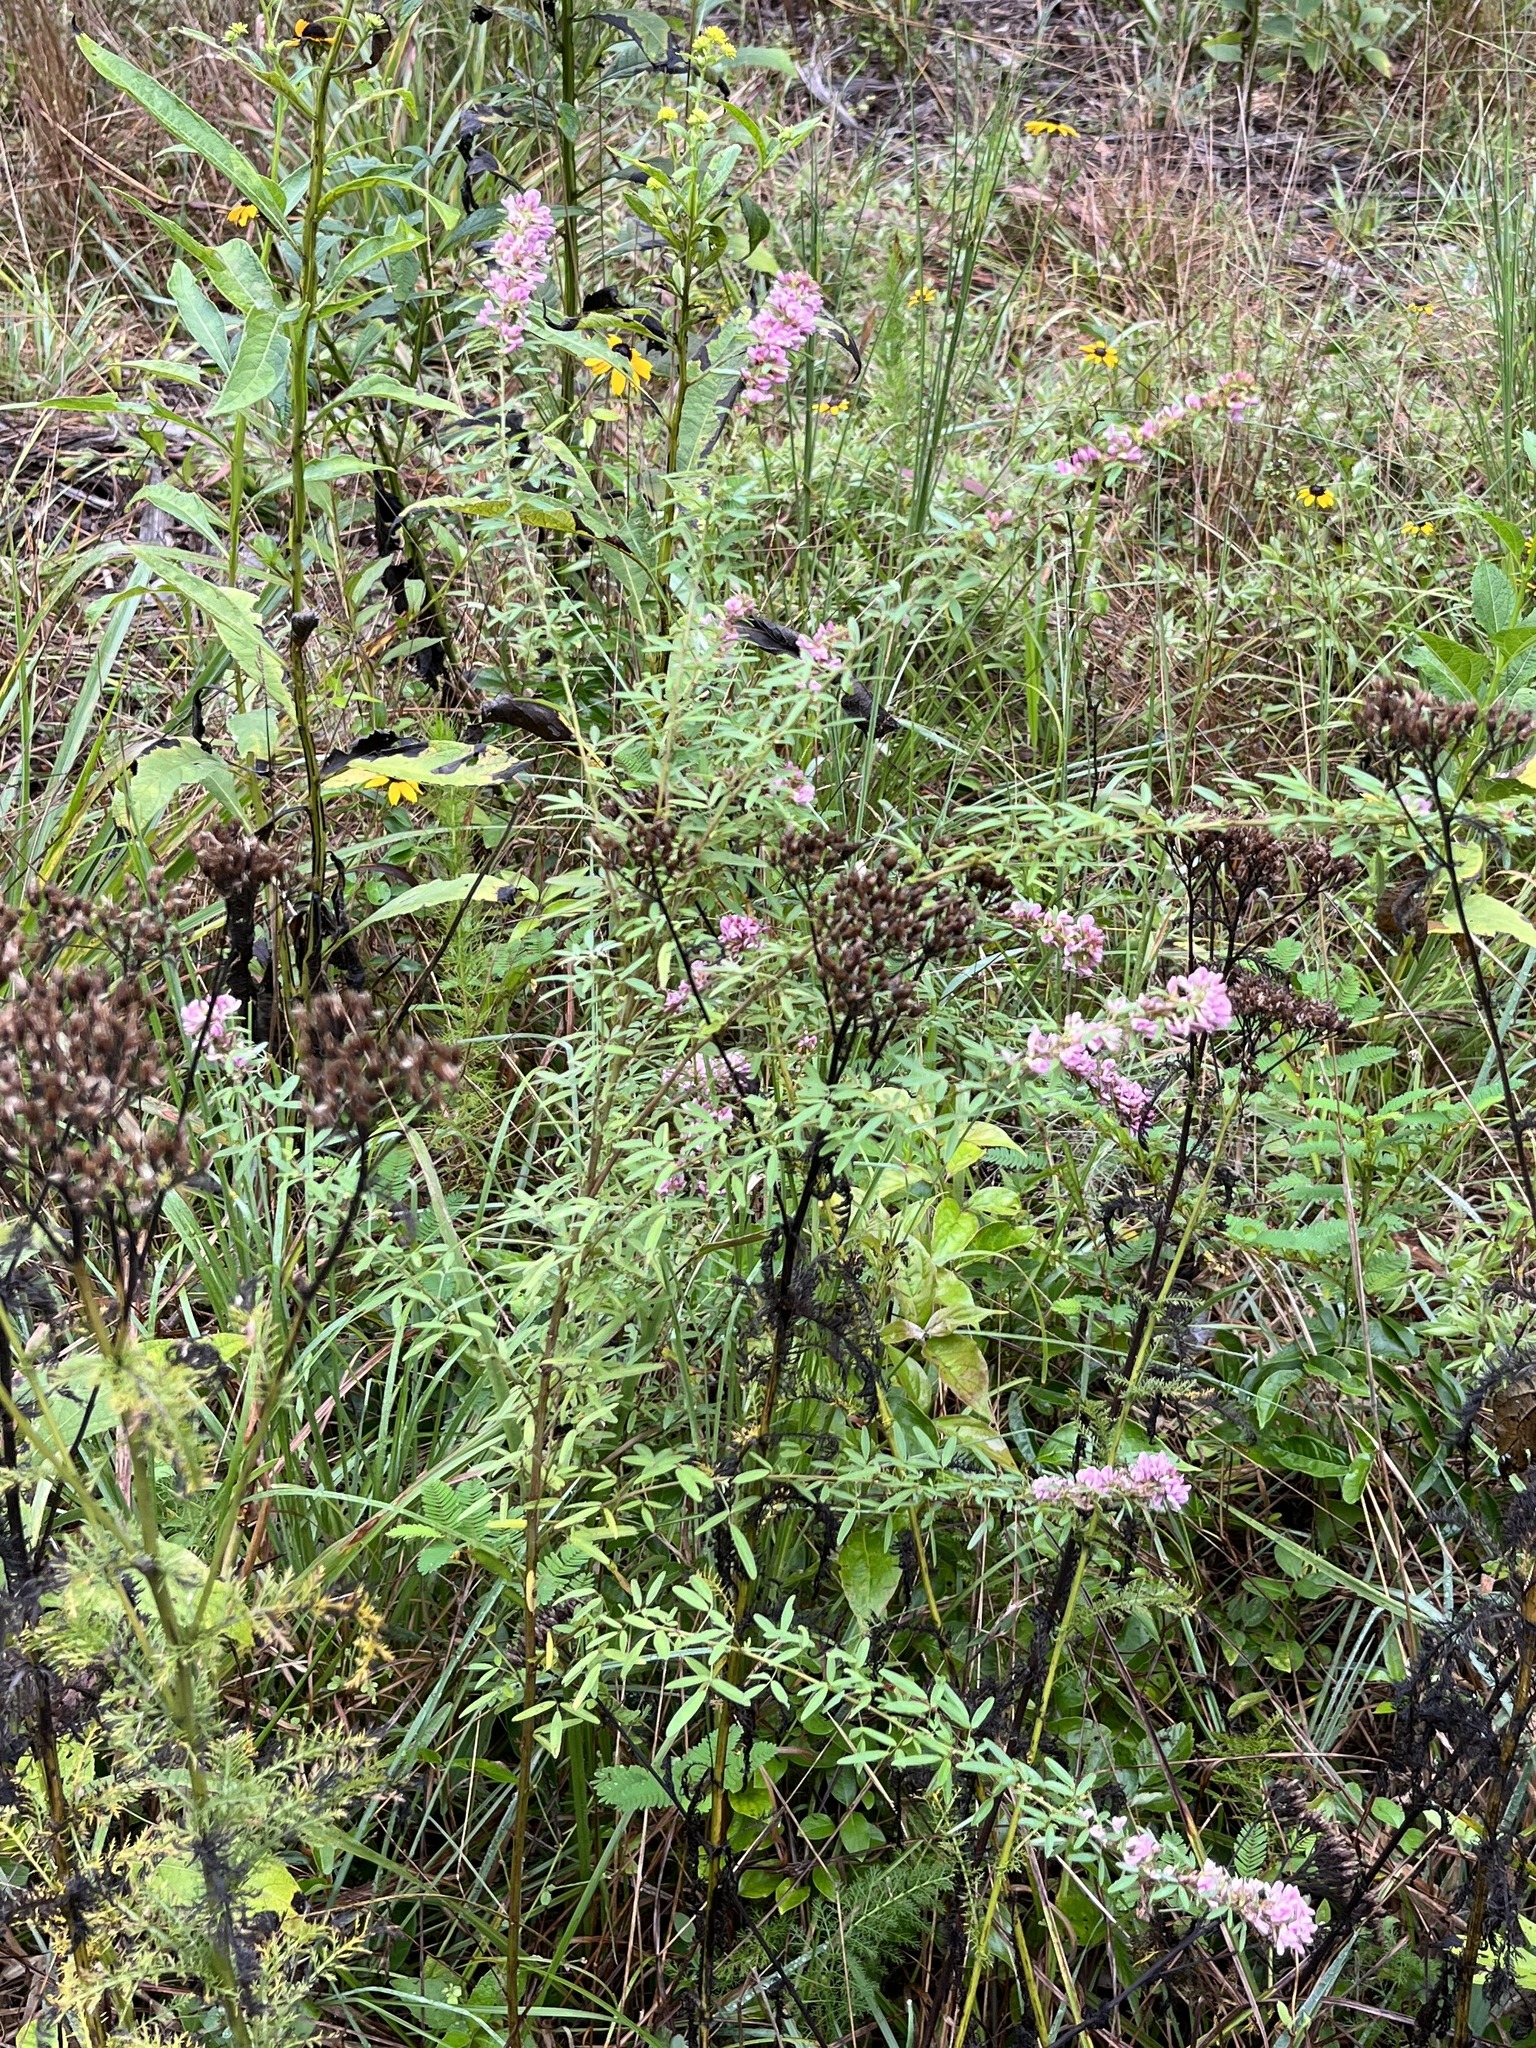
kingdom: Plantae
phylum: Tracheophyta
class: Magnoliopsida
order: Fabales
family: Fabaceae
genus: Lespedeza
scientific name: Lespedeza virginica
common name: Slender bush-clover
